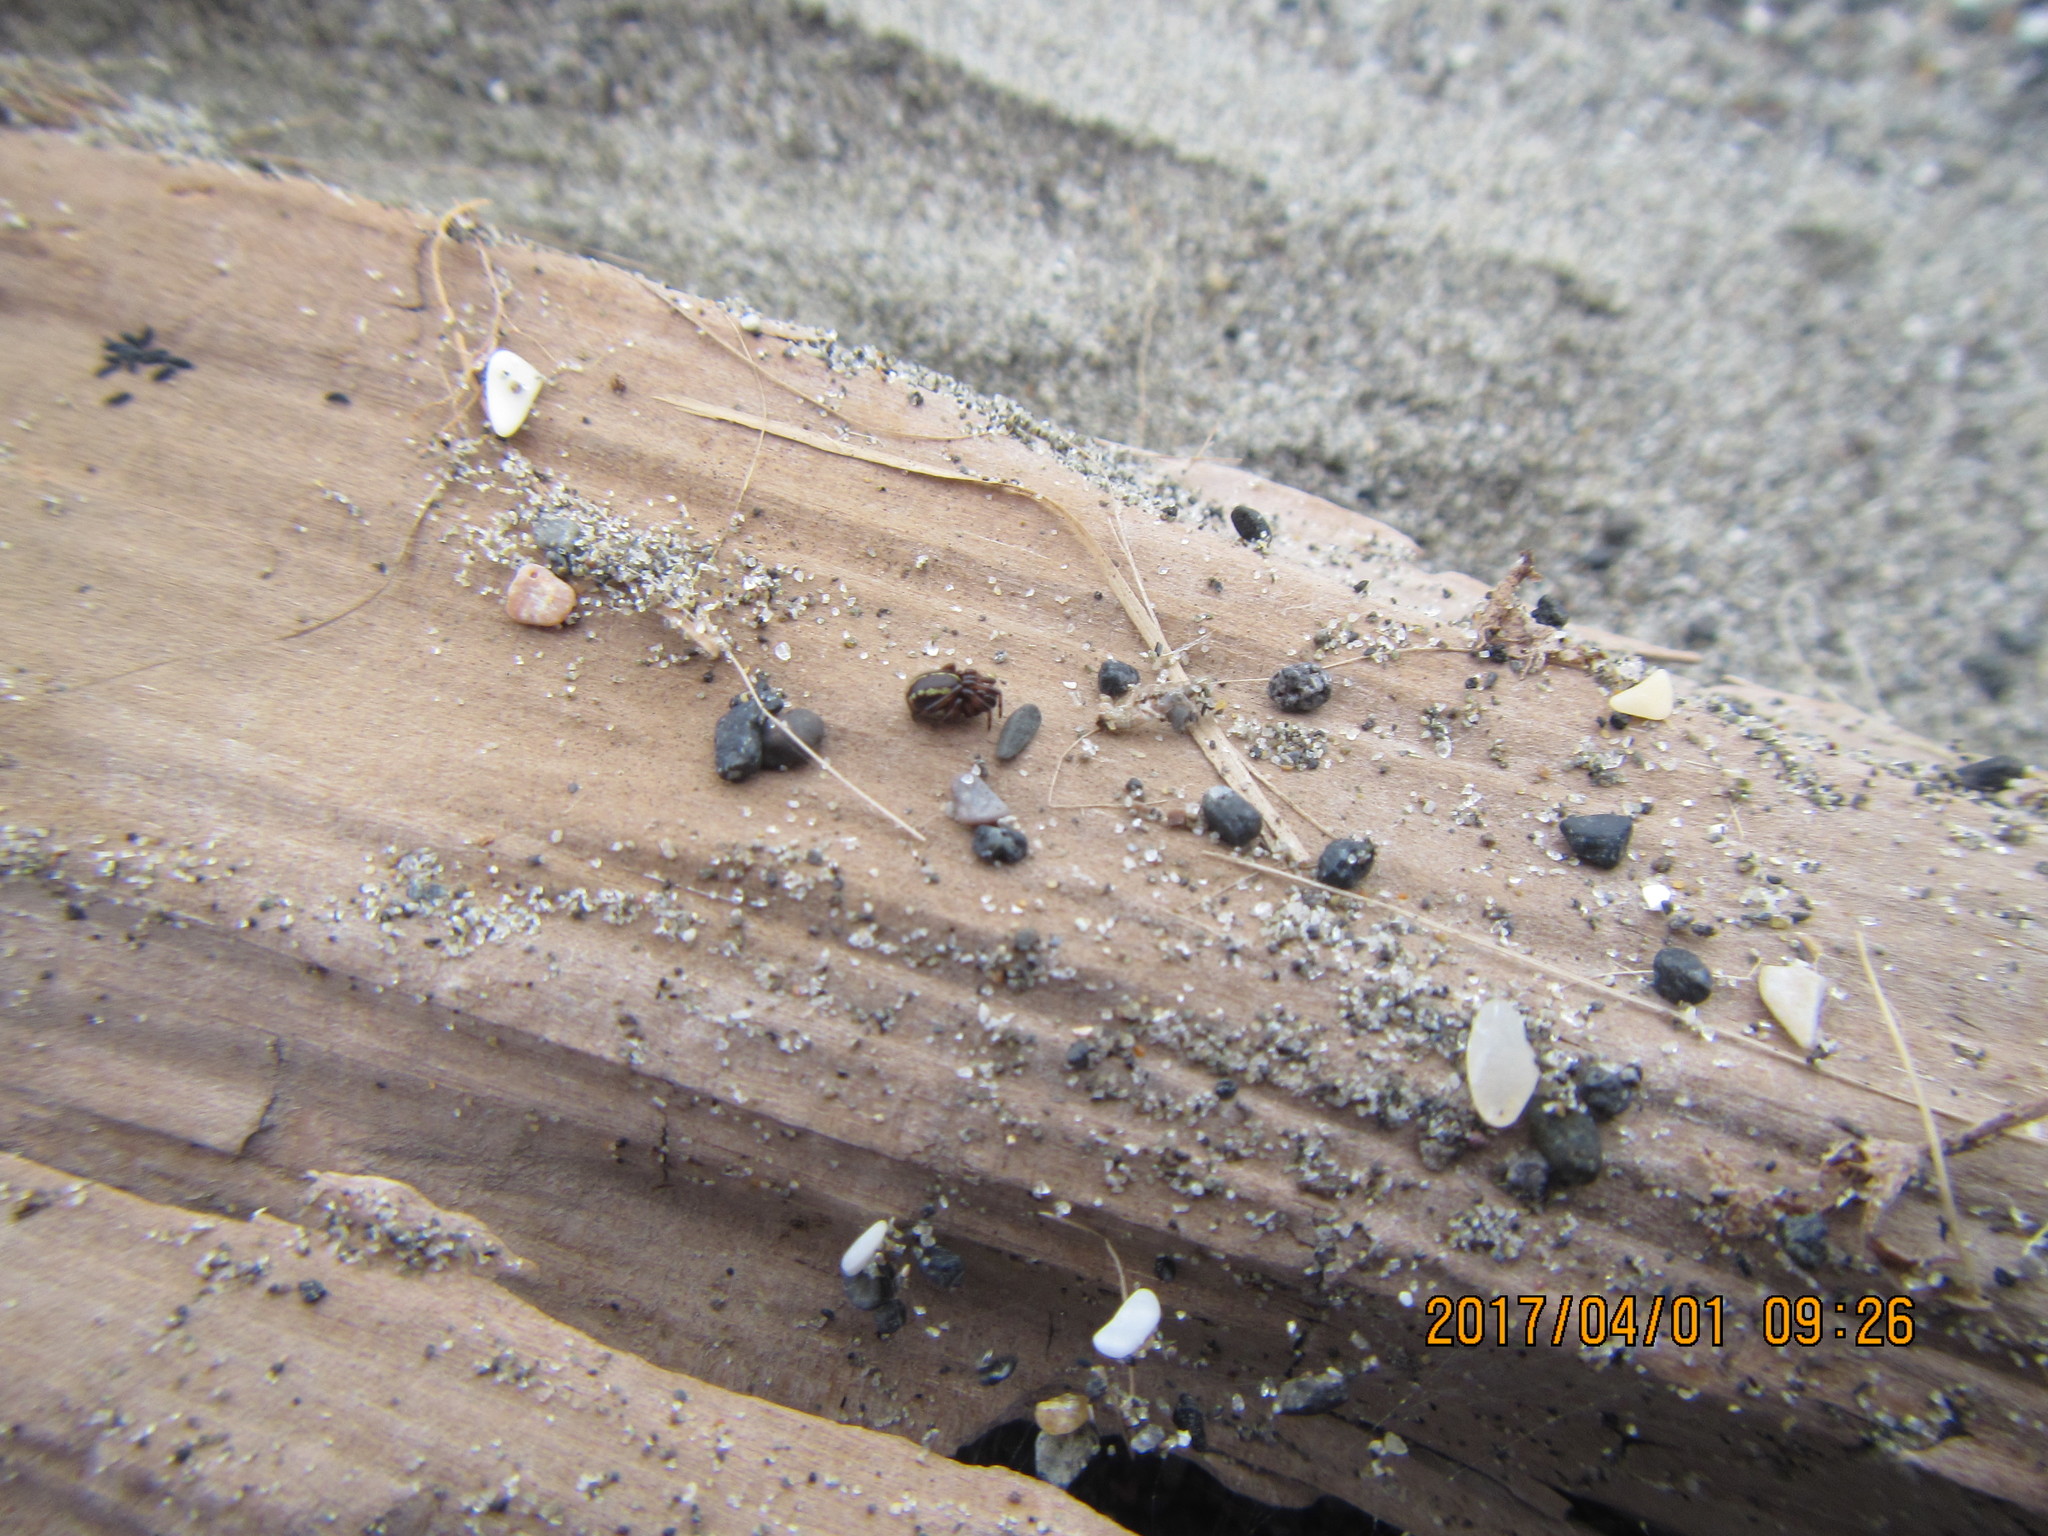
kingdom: Animalia
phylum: Arthropoda
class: Arachnida
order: Araneae
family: Theridiidae
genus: Steatoda
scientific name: Steatoda lepida
